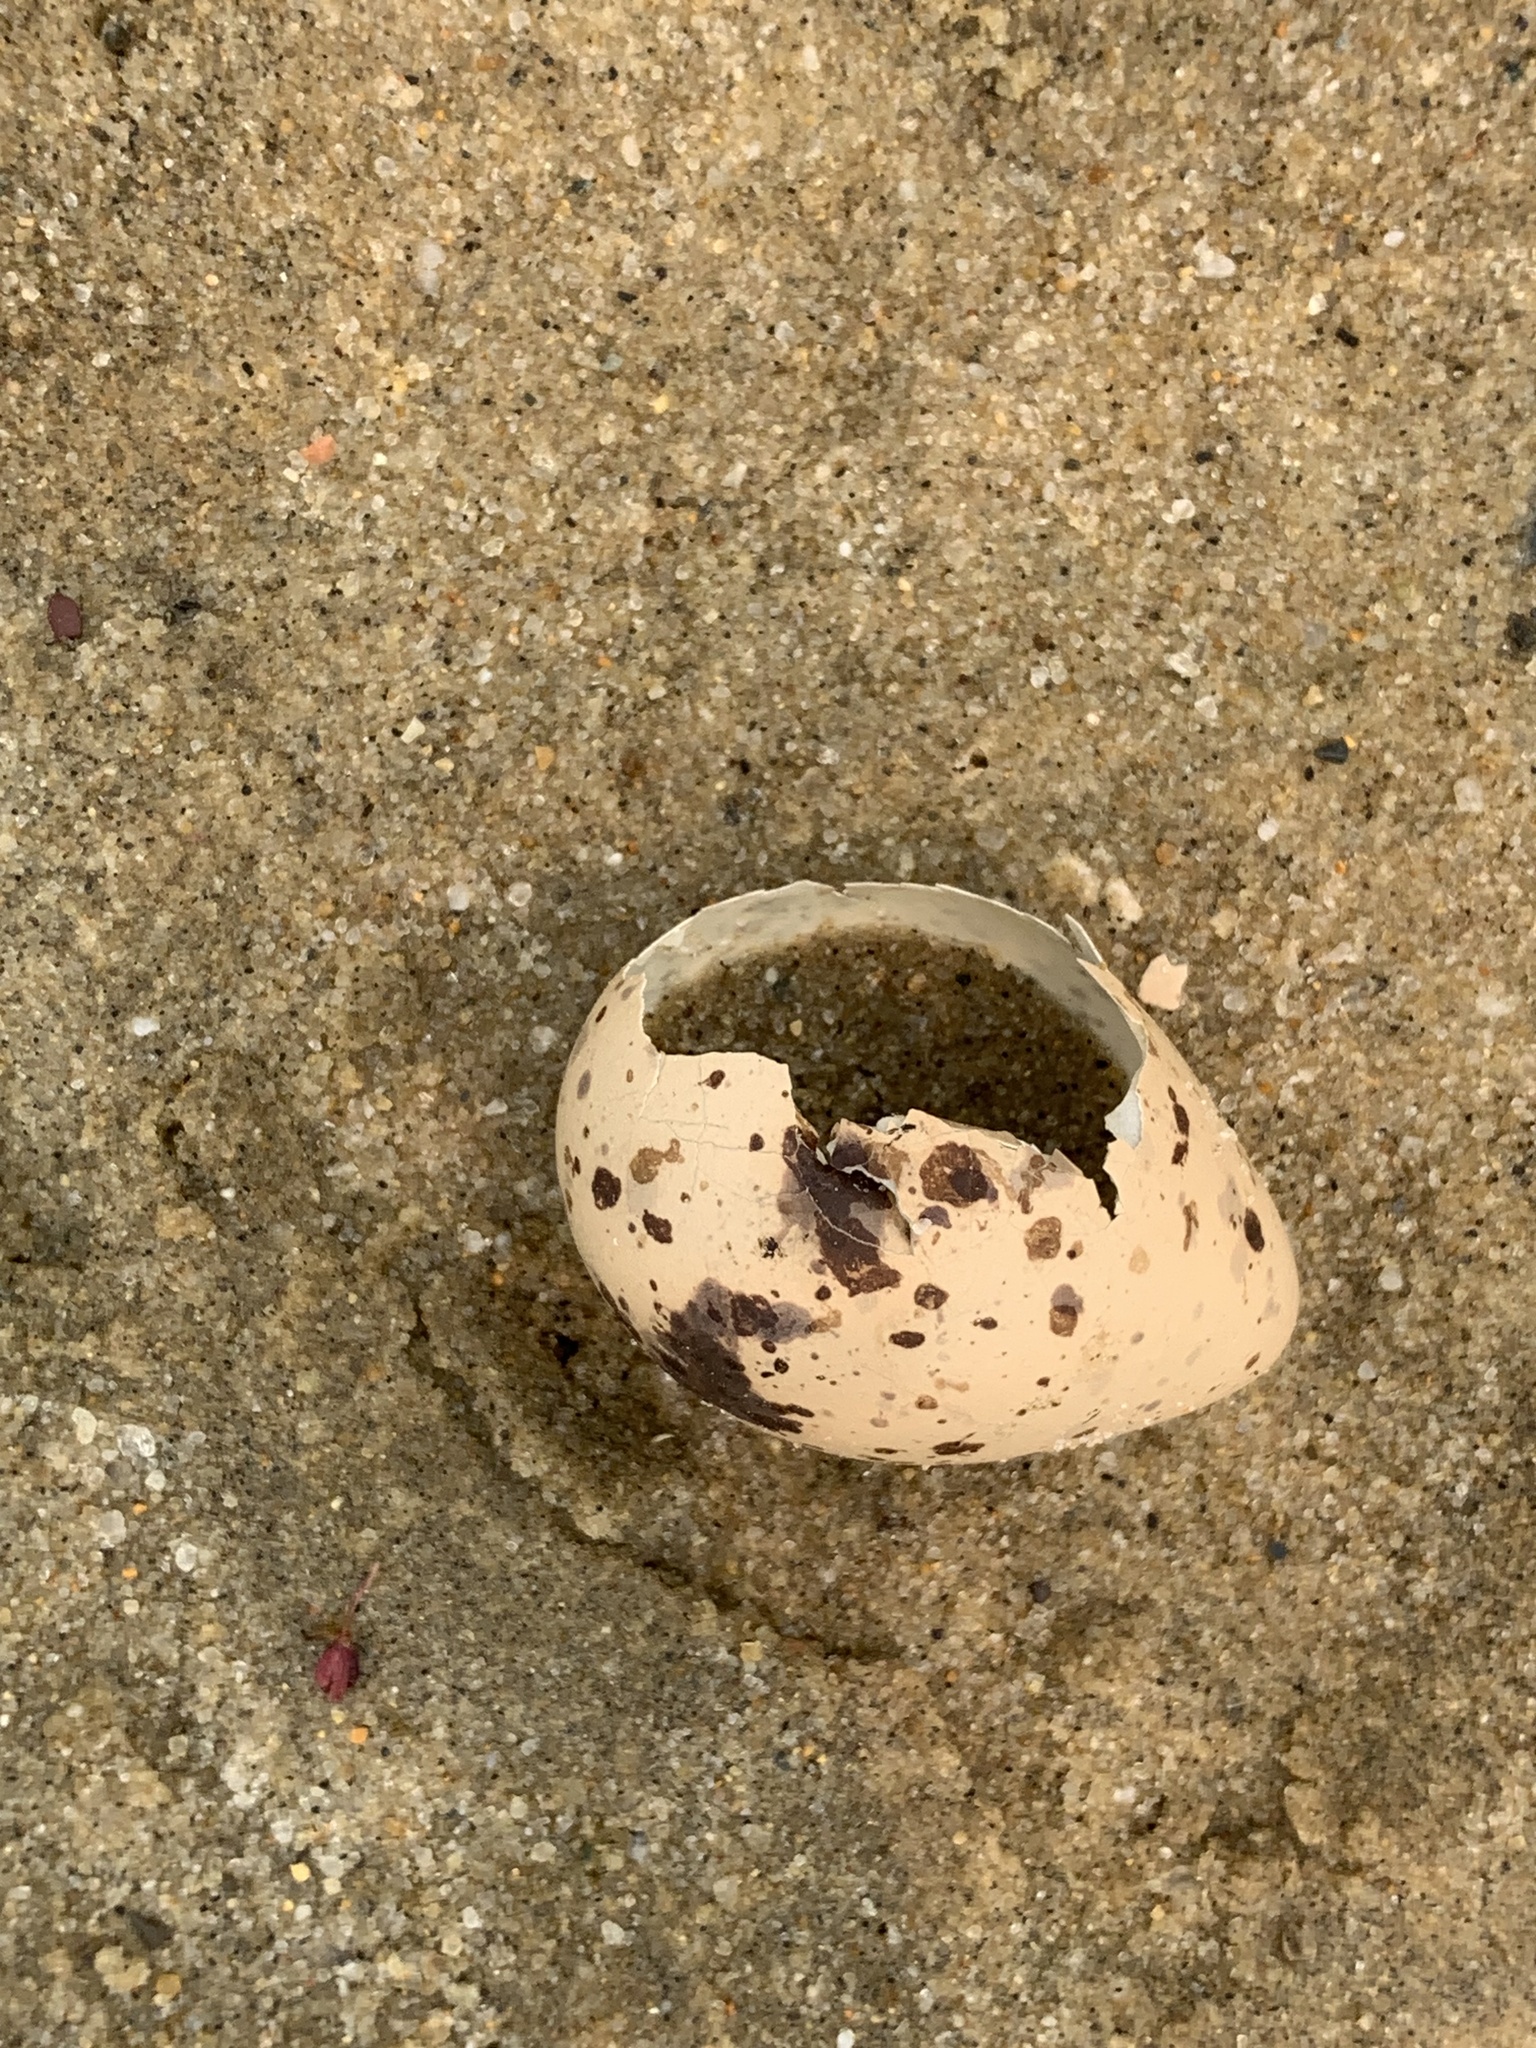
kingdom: Animalia
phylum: Chordata
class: Aves
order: Charadriiformes
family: Scolopacidae
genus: Tringa
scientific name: Tringa semipalmata
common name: Willet
